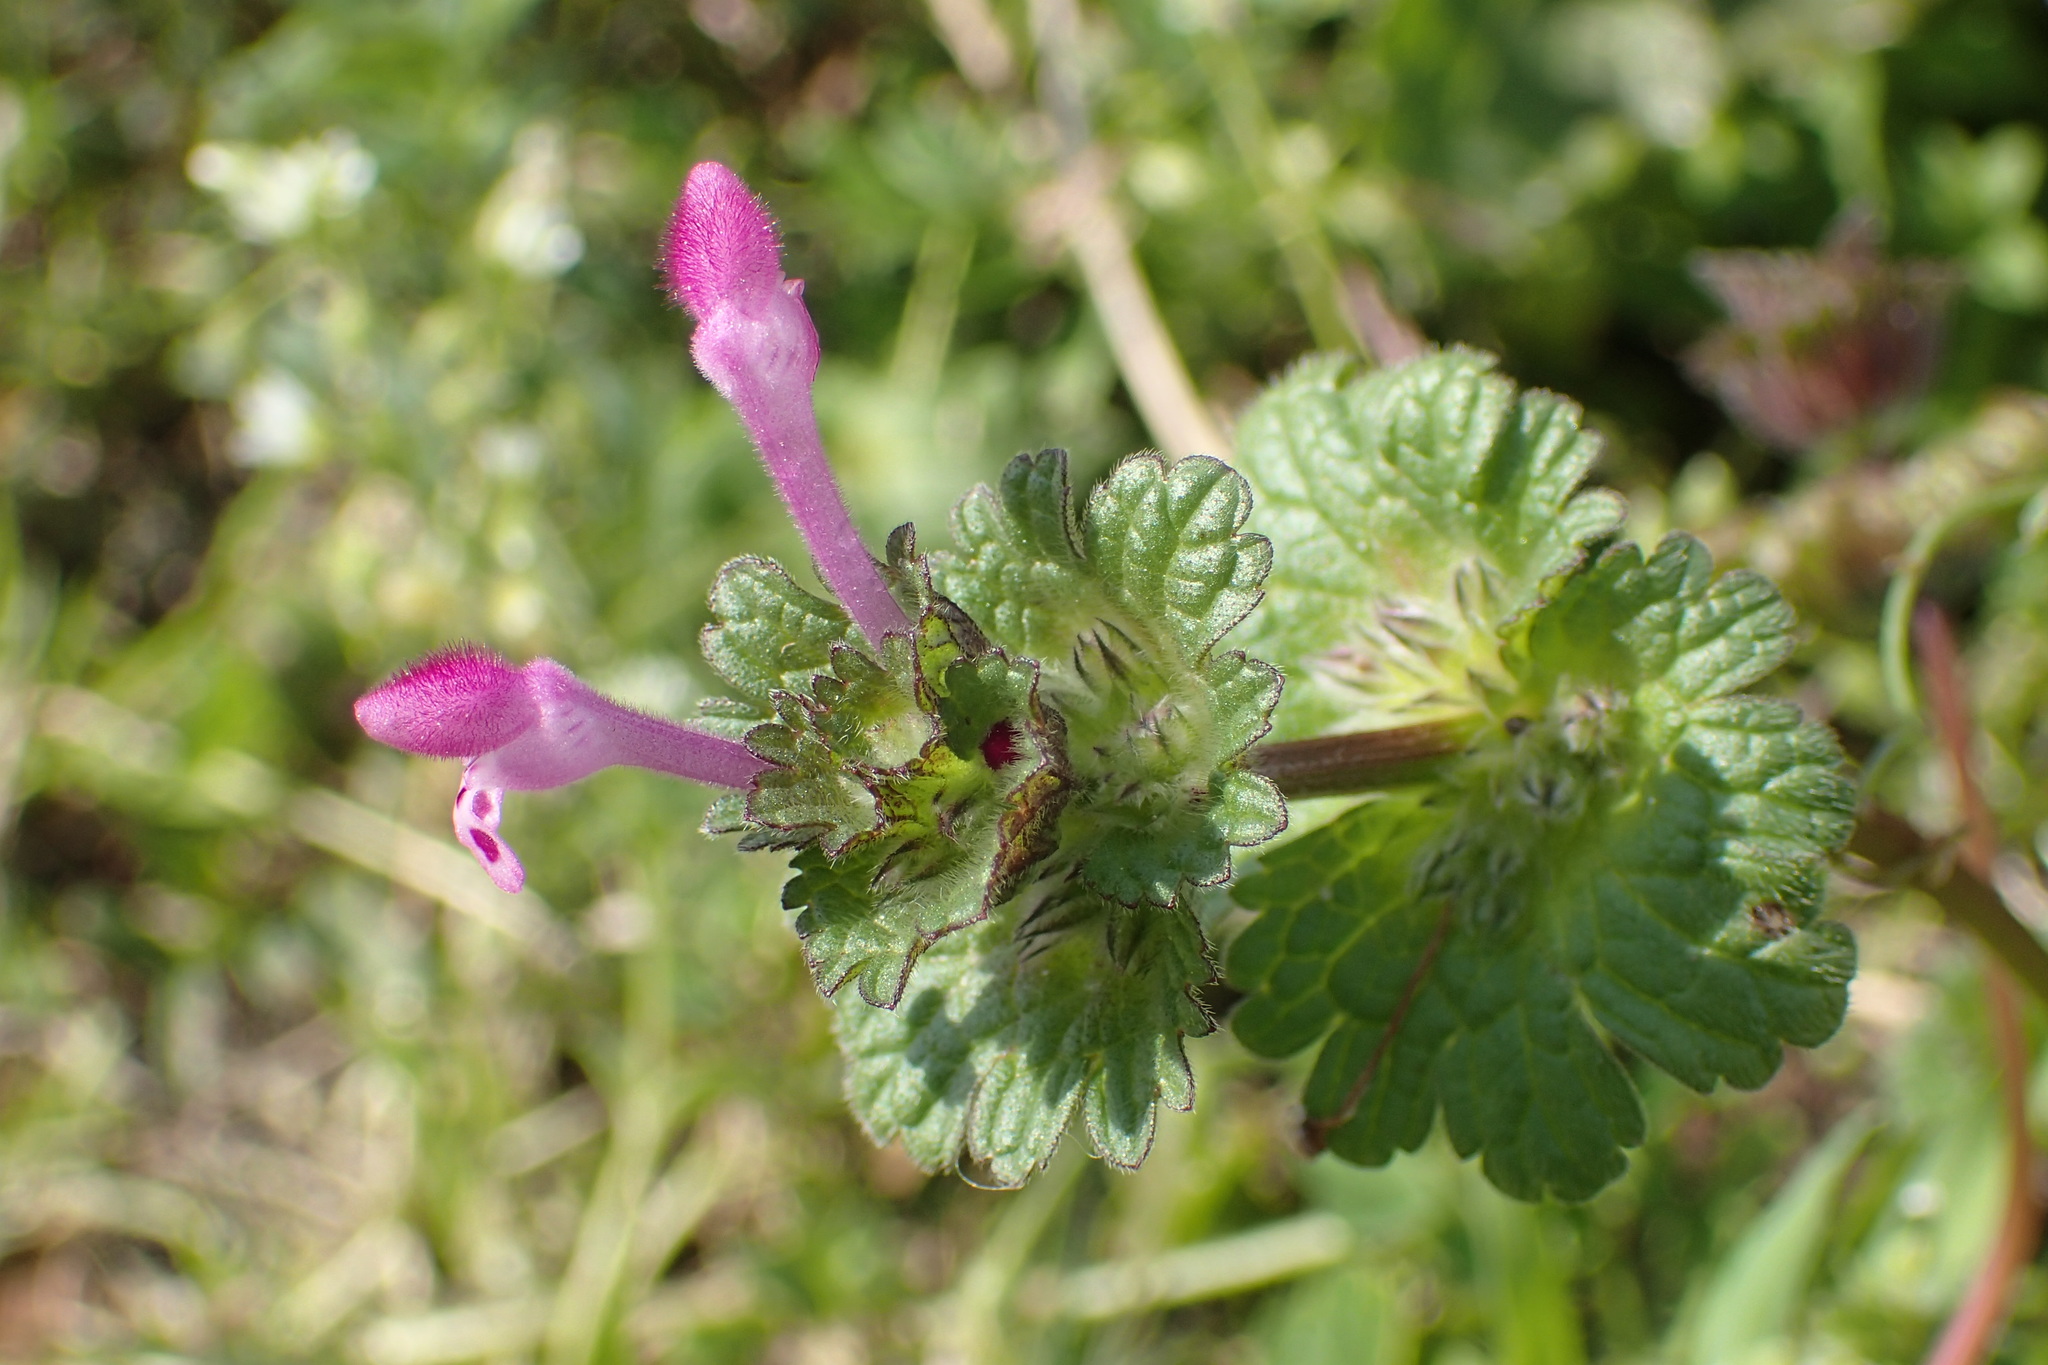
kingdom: Plantae
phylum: Tracheophyta
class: Magnoliopsida
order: Lamiales
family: Lamiaceae
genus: Lamium
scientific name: Lamium amplexicaule
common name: Henbit dead-nettle
